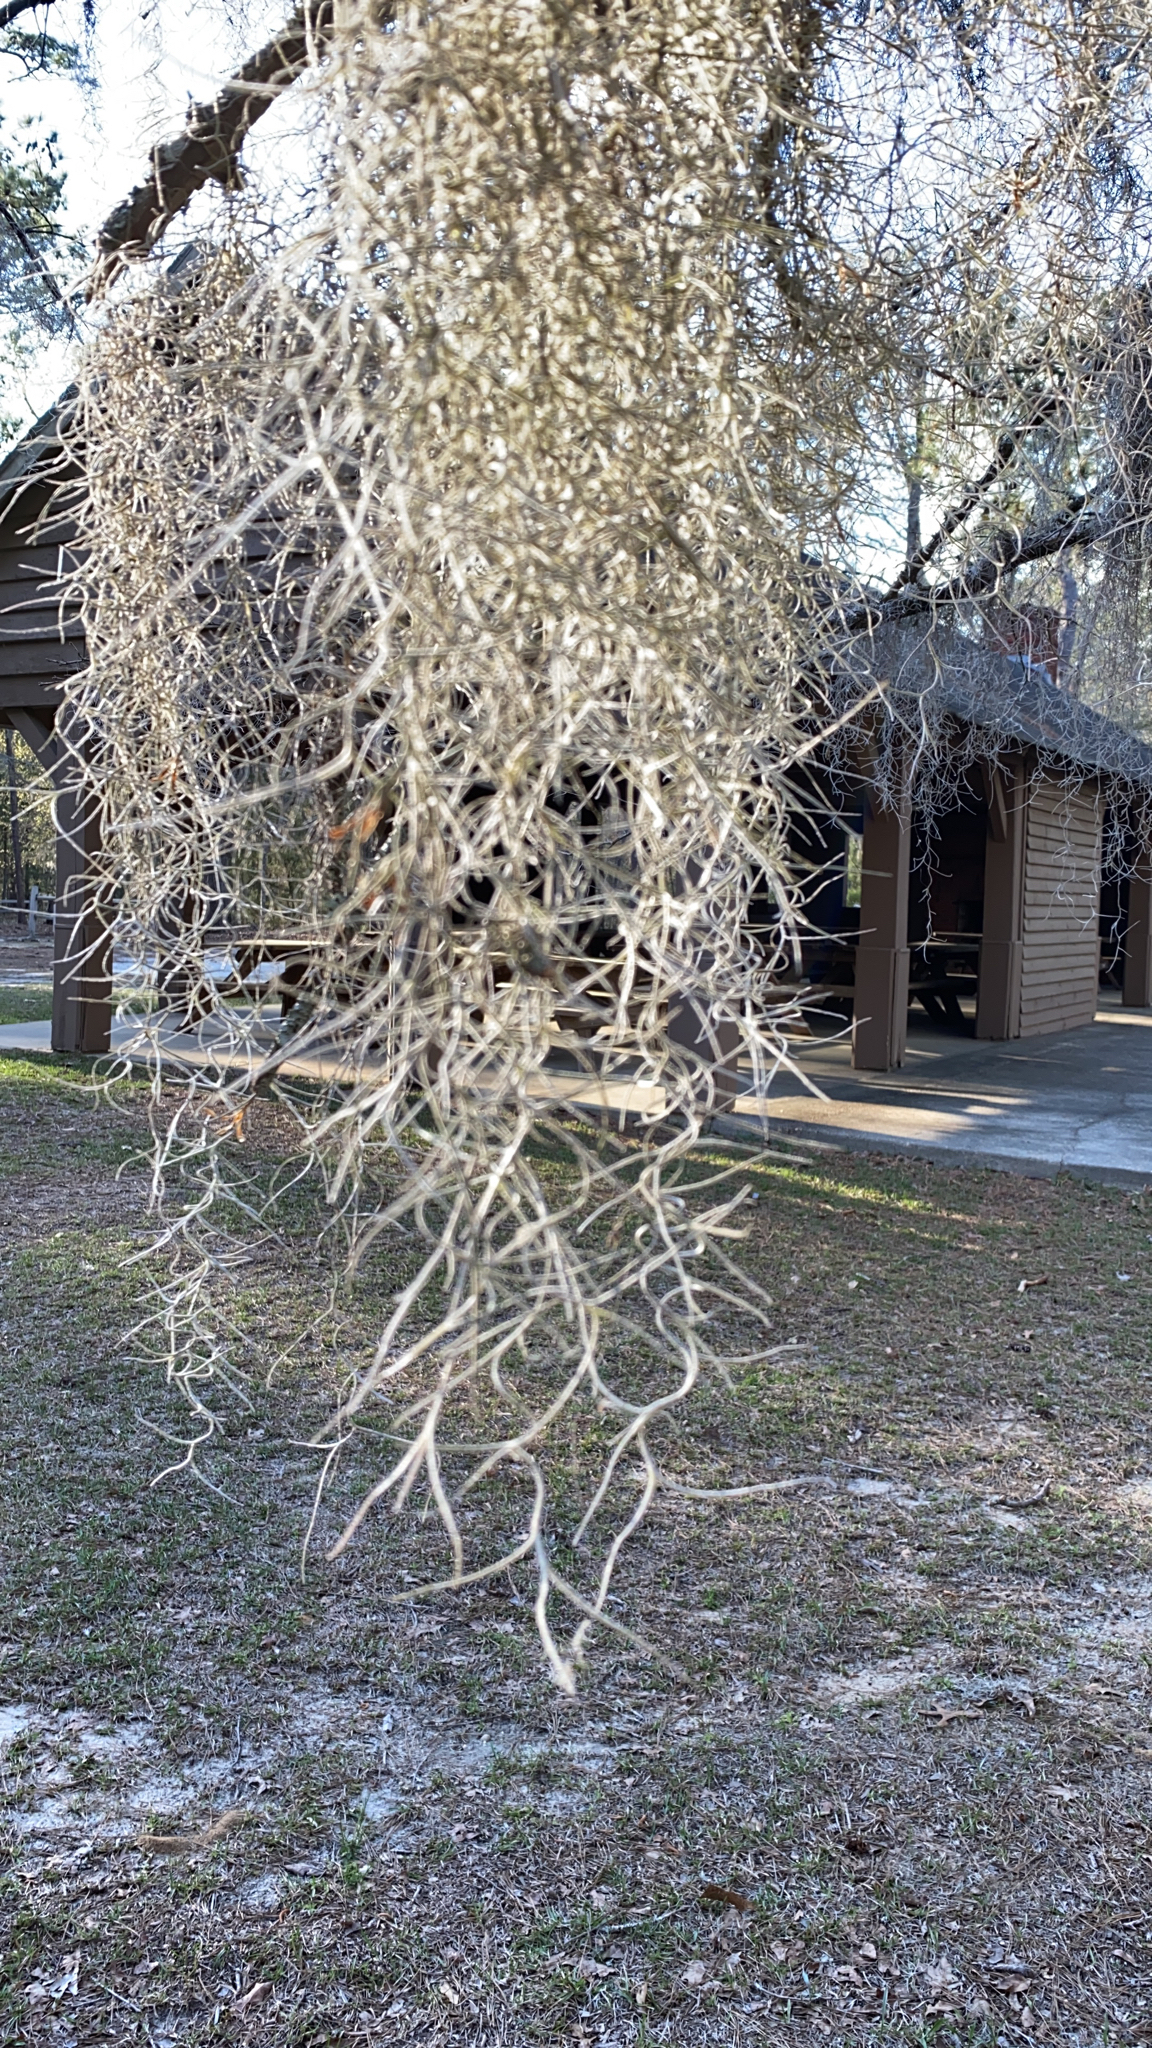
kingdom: Plantae
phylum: Tracheophyta
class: Liliopsida
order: Poales
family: Bromeliaceae
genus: Tillandsia
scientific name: Tillandsia usneoides
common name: Spanish moss
